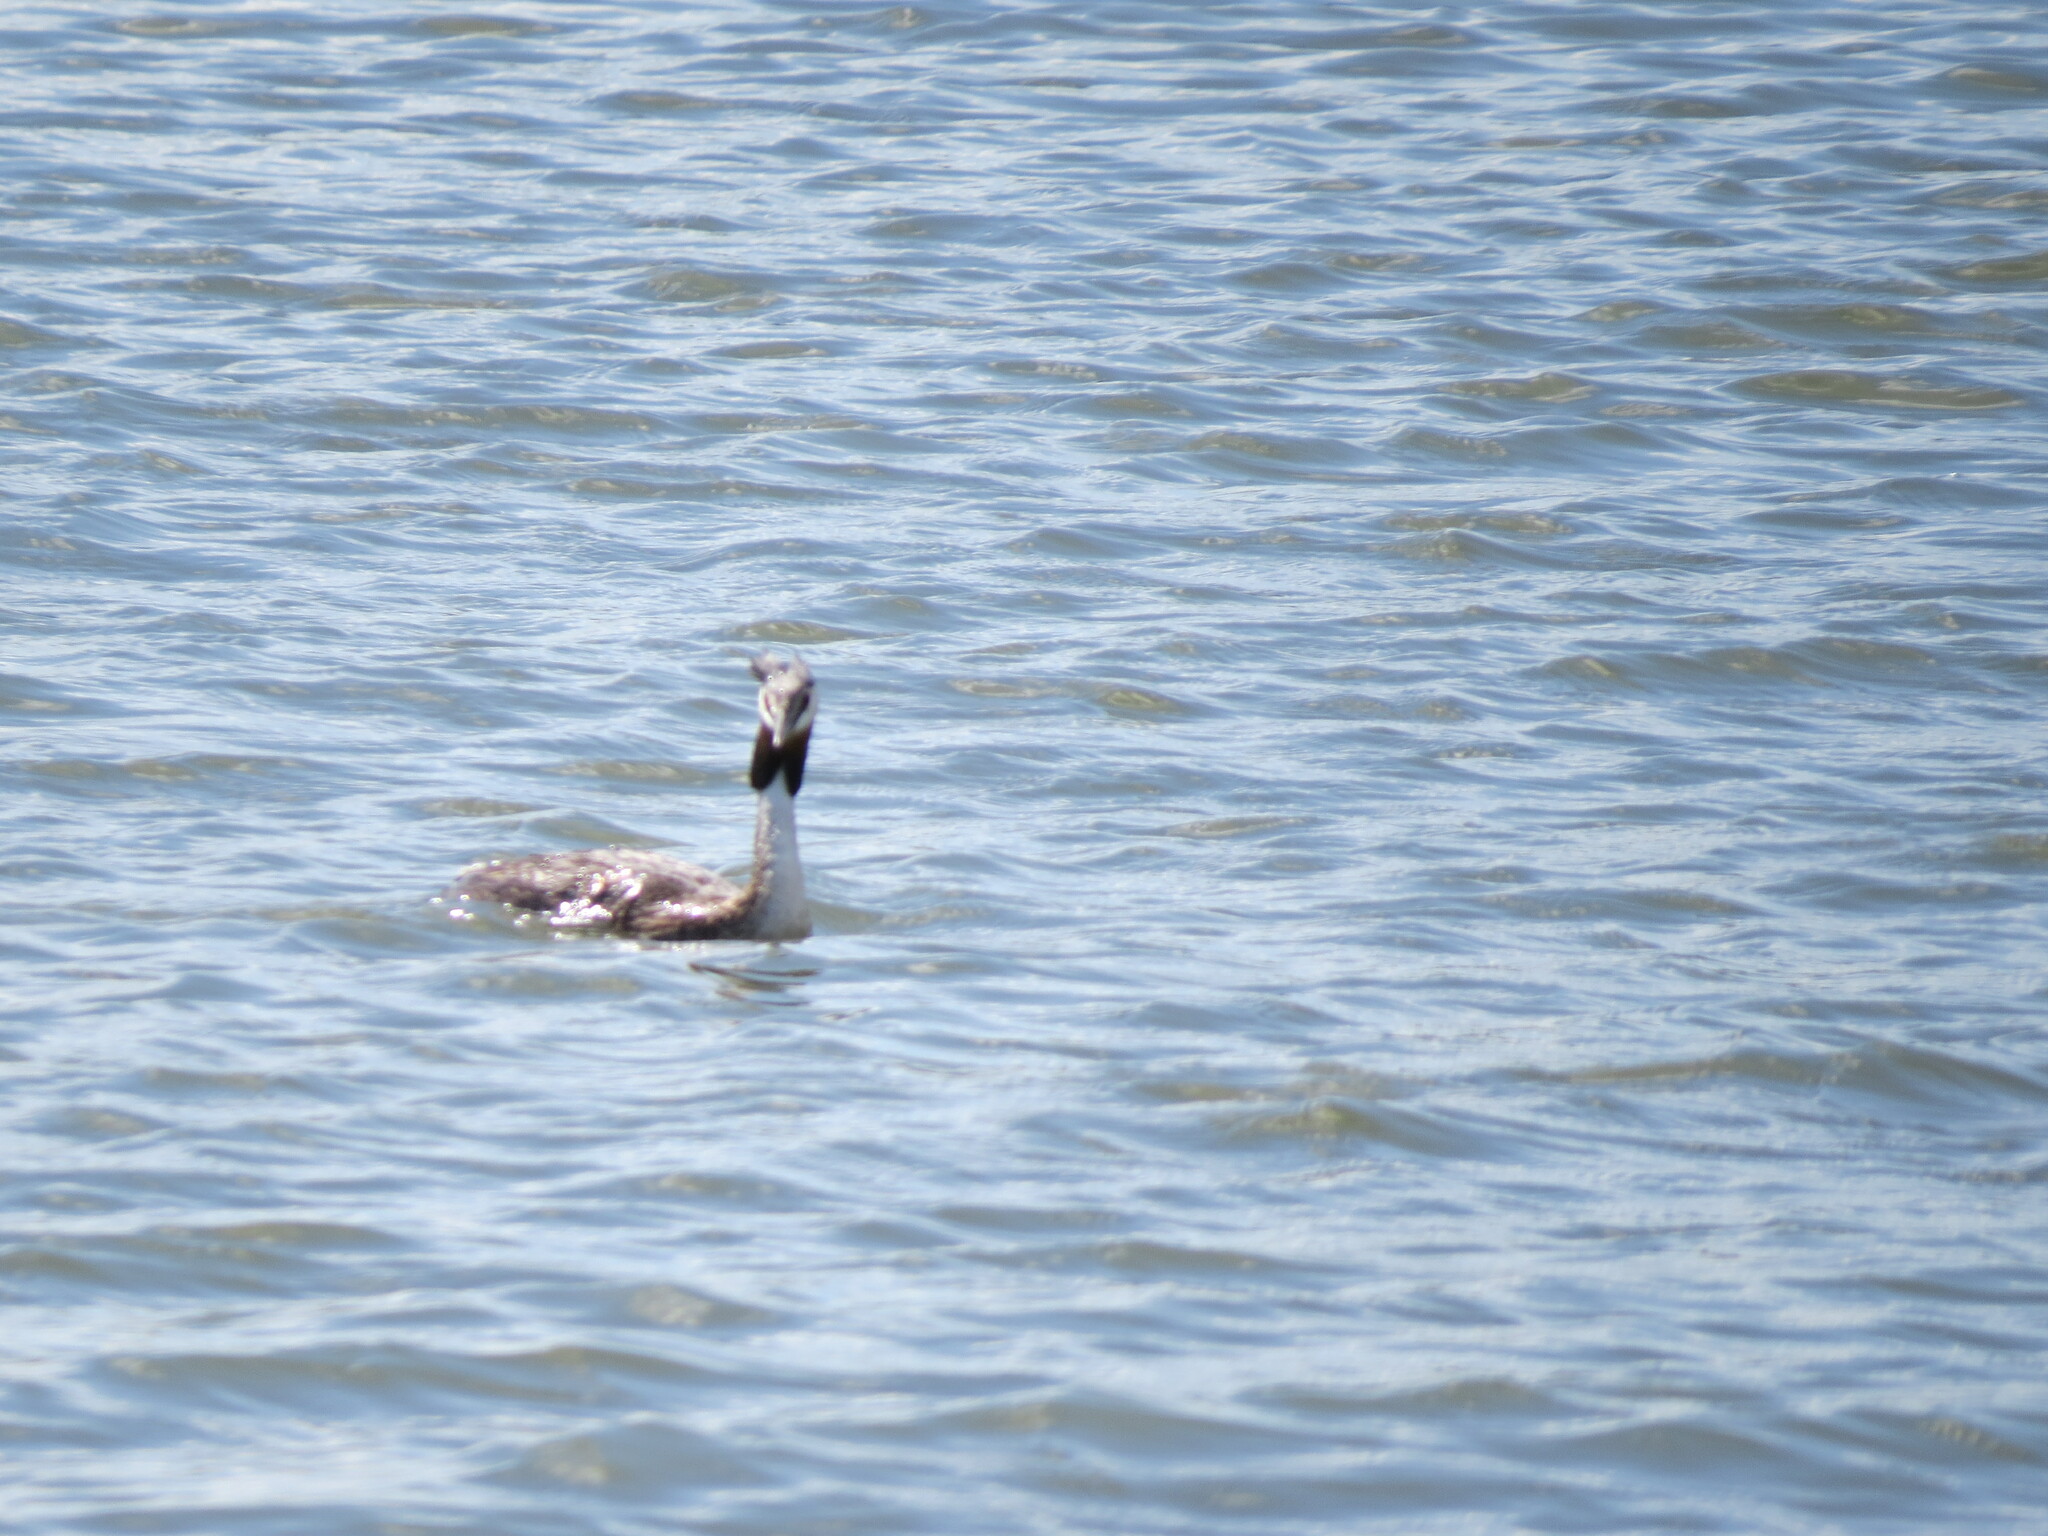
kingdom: Animalia
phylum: Chordata
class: Aves
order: Podicipediformes
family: Podicipedidae
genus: Podiceps
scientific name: Podiceps cristatus
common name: Great crested grebe
